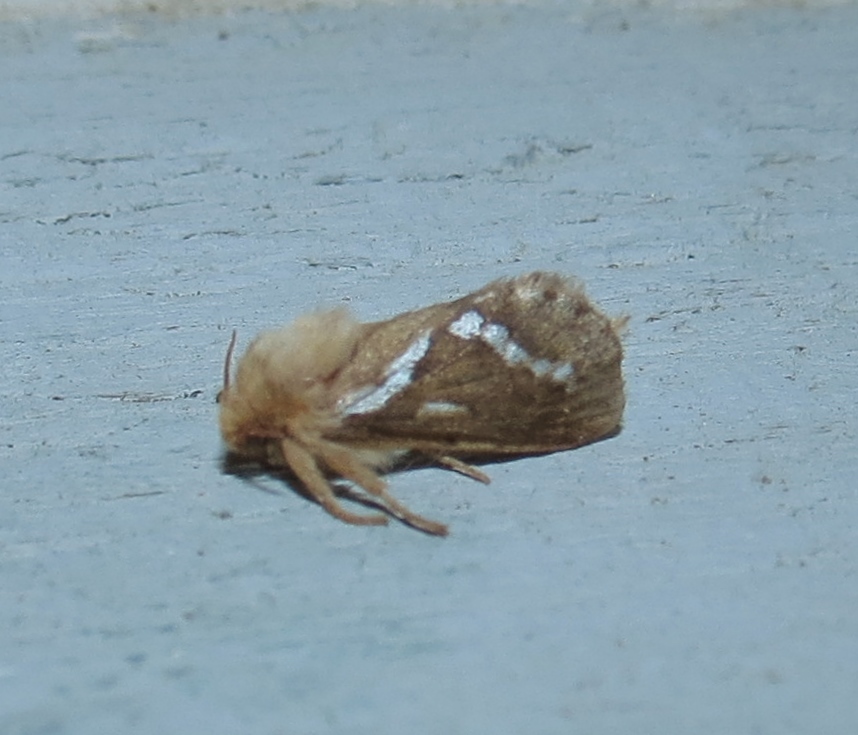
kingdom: Animalia
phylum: Arthropoda
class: Insecta
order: Lepidoptera
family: Hepialidae
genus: Korscheltellus
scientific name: Korscheltellus lupulina
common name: Common swift
